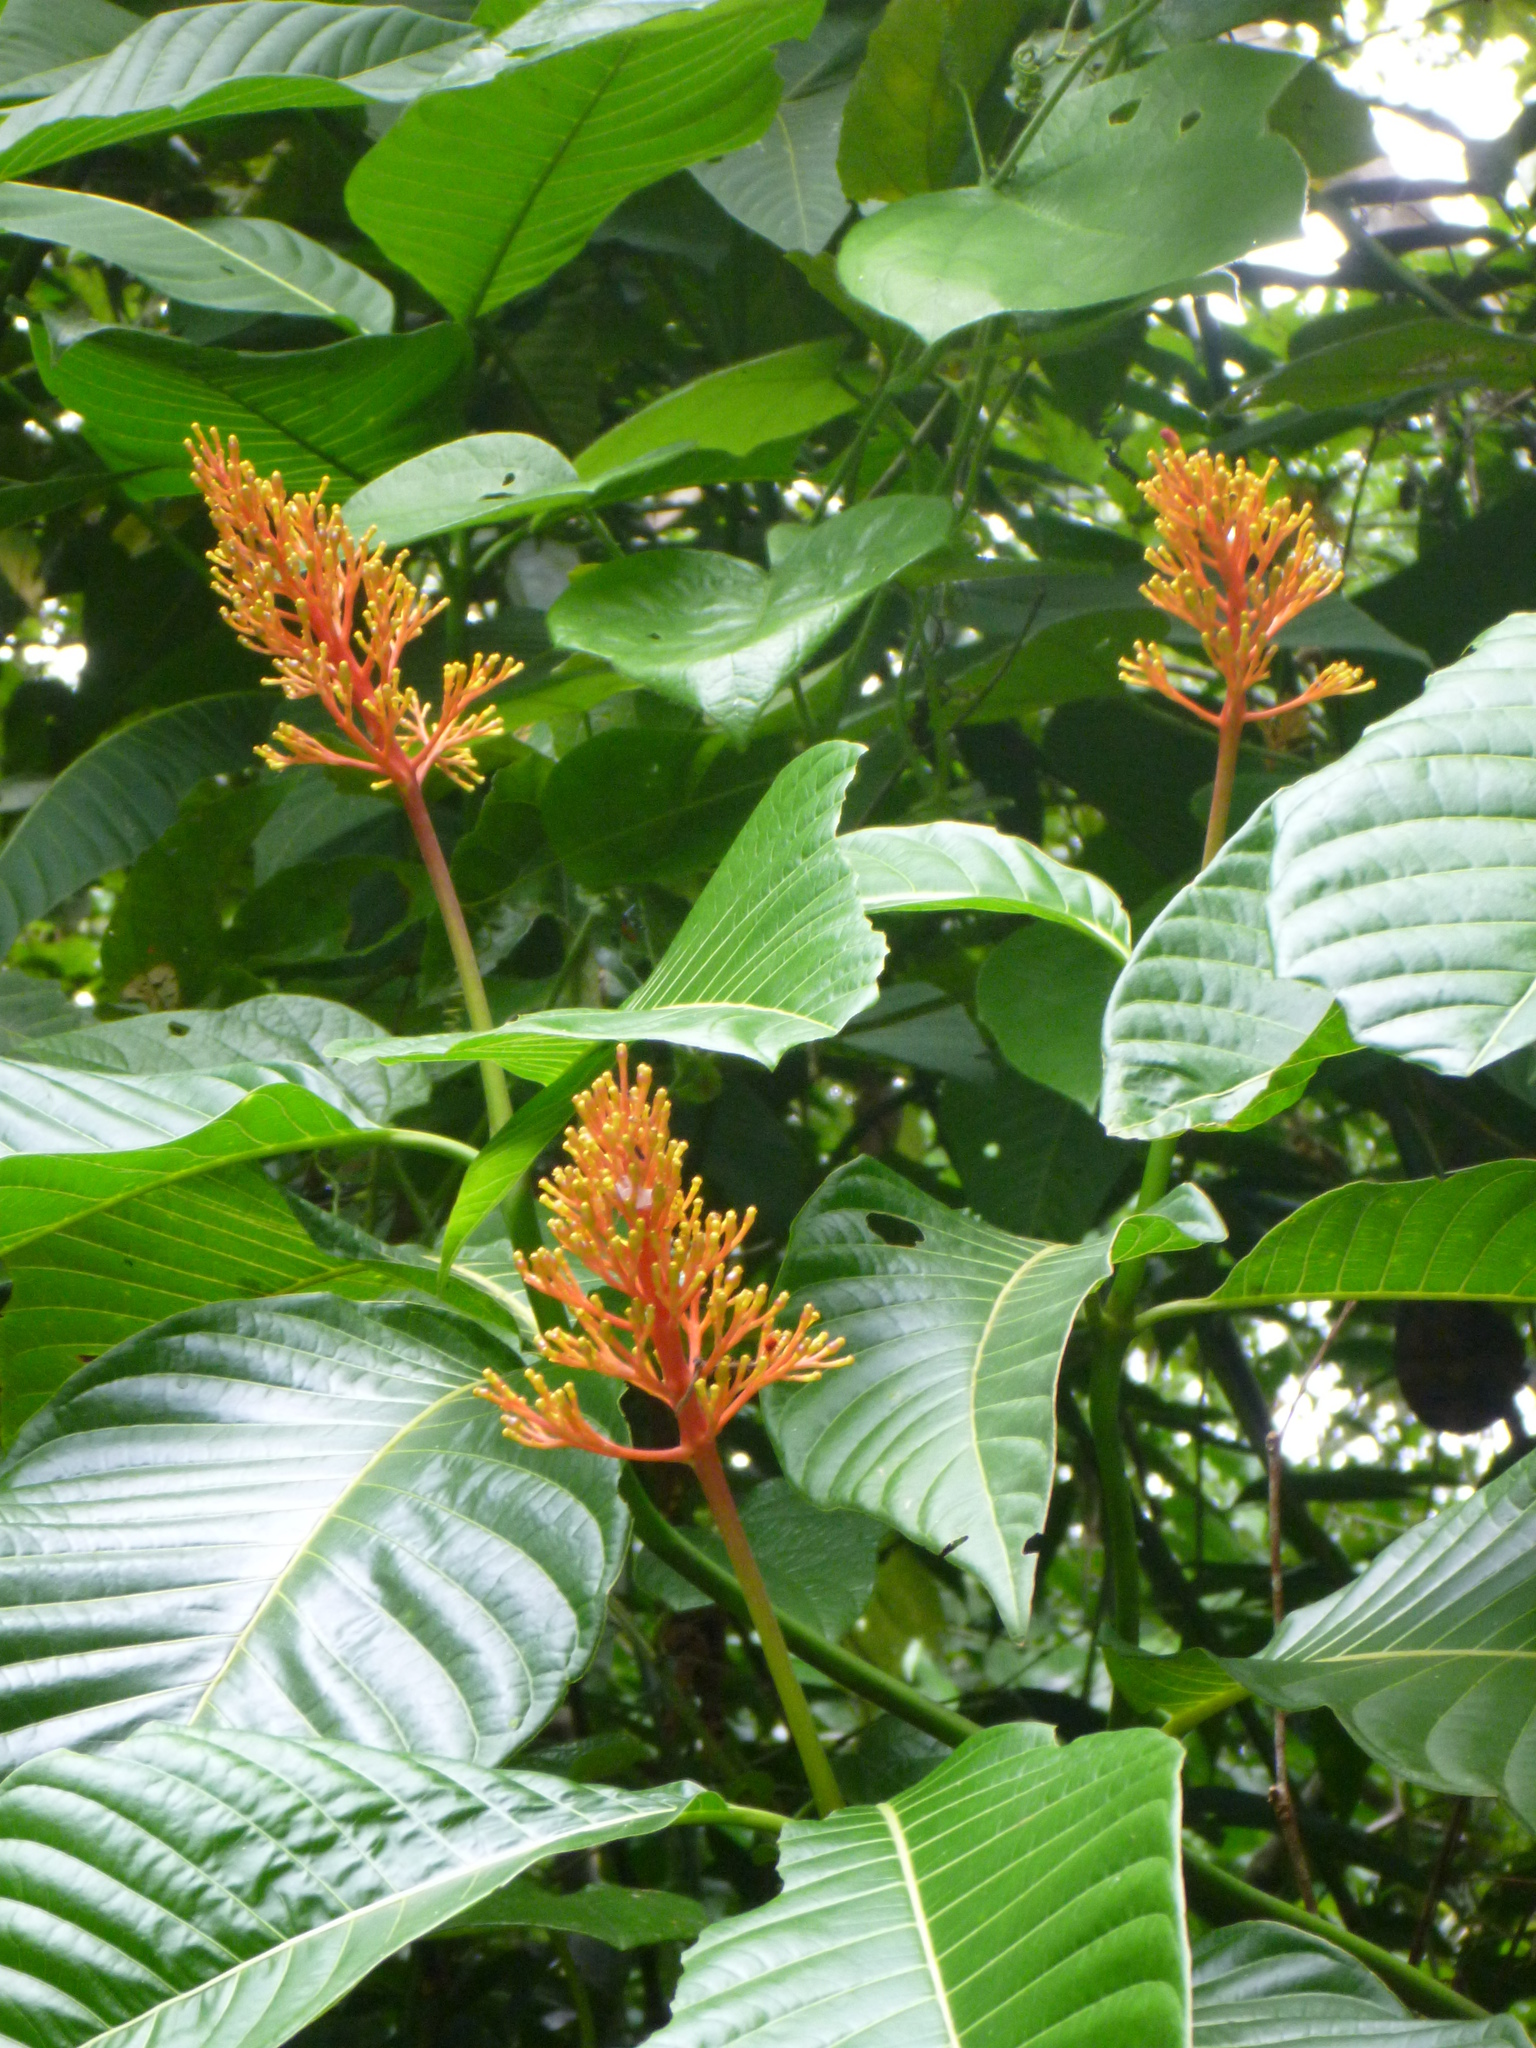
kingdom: Plantae
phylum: Tracheophyta
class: Magnoliopsida
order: Gentianales
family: Rubiaceae
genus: Palicourea
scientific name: Palicourea guianensis
